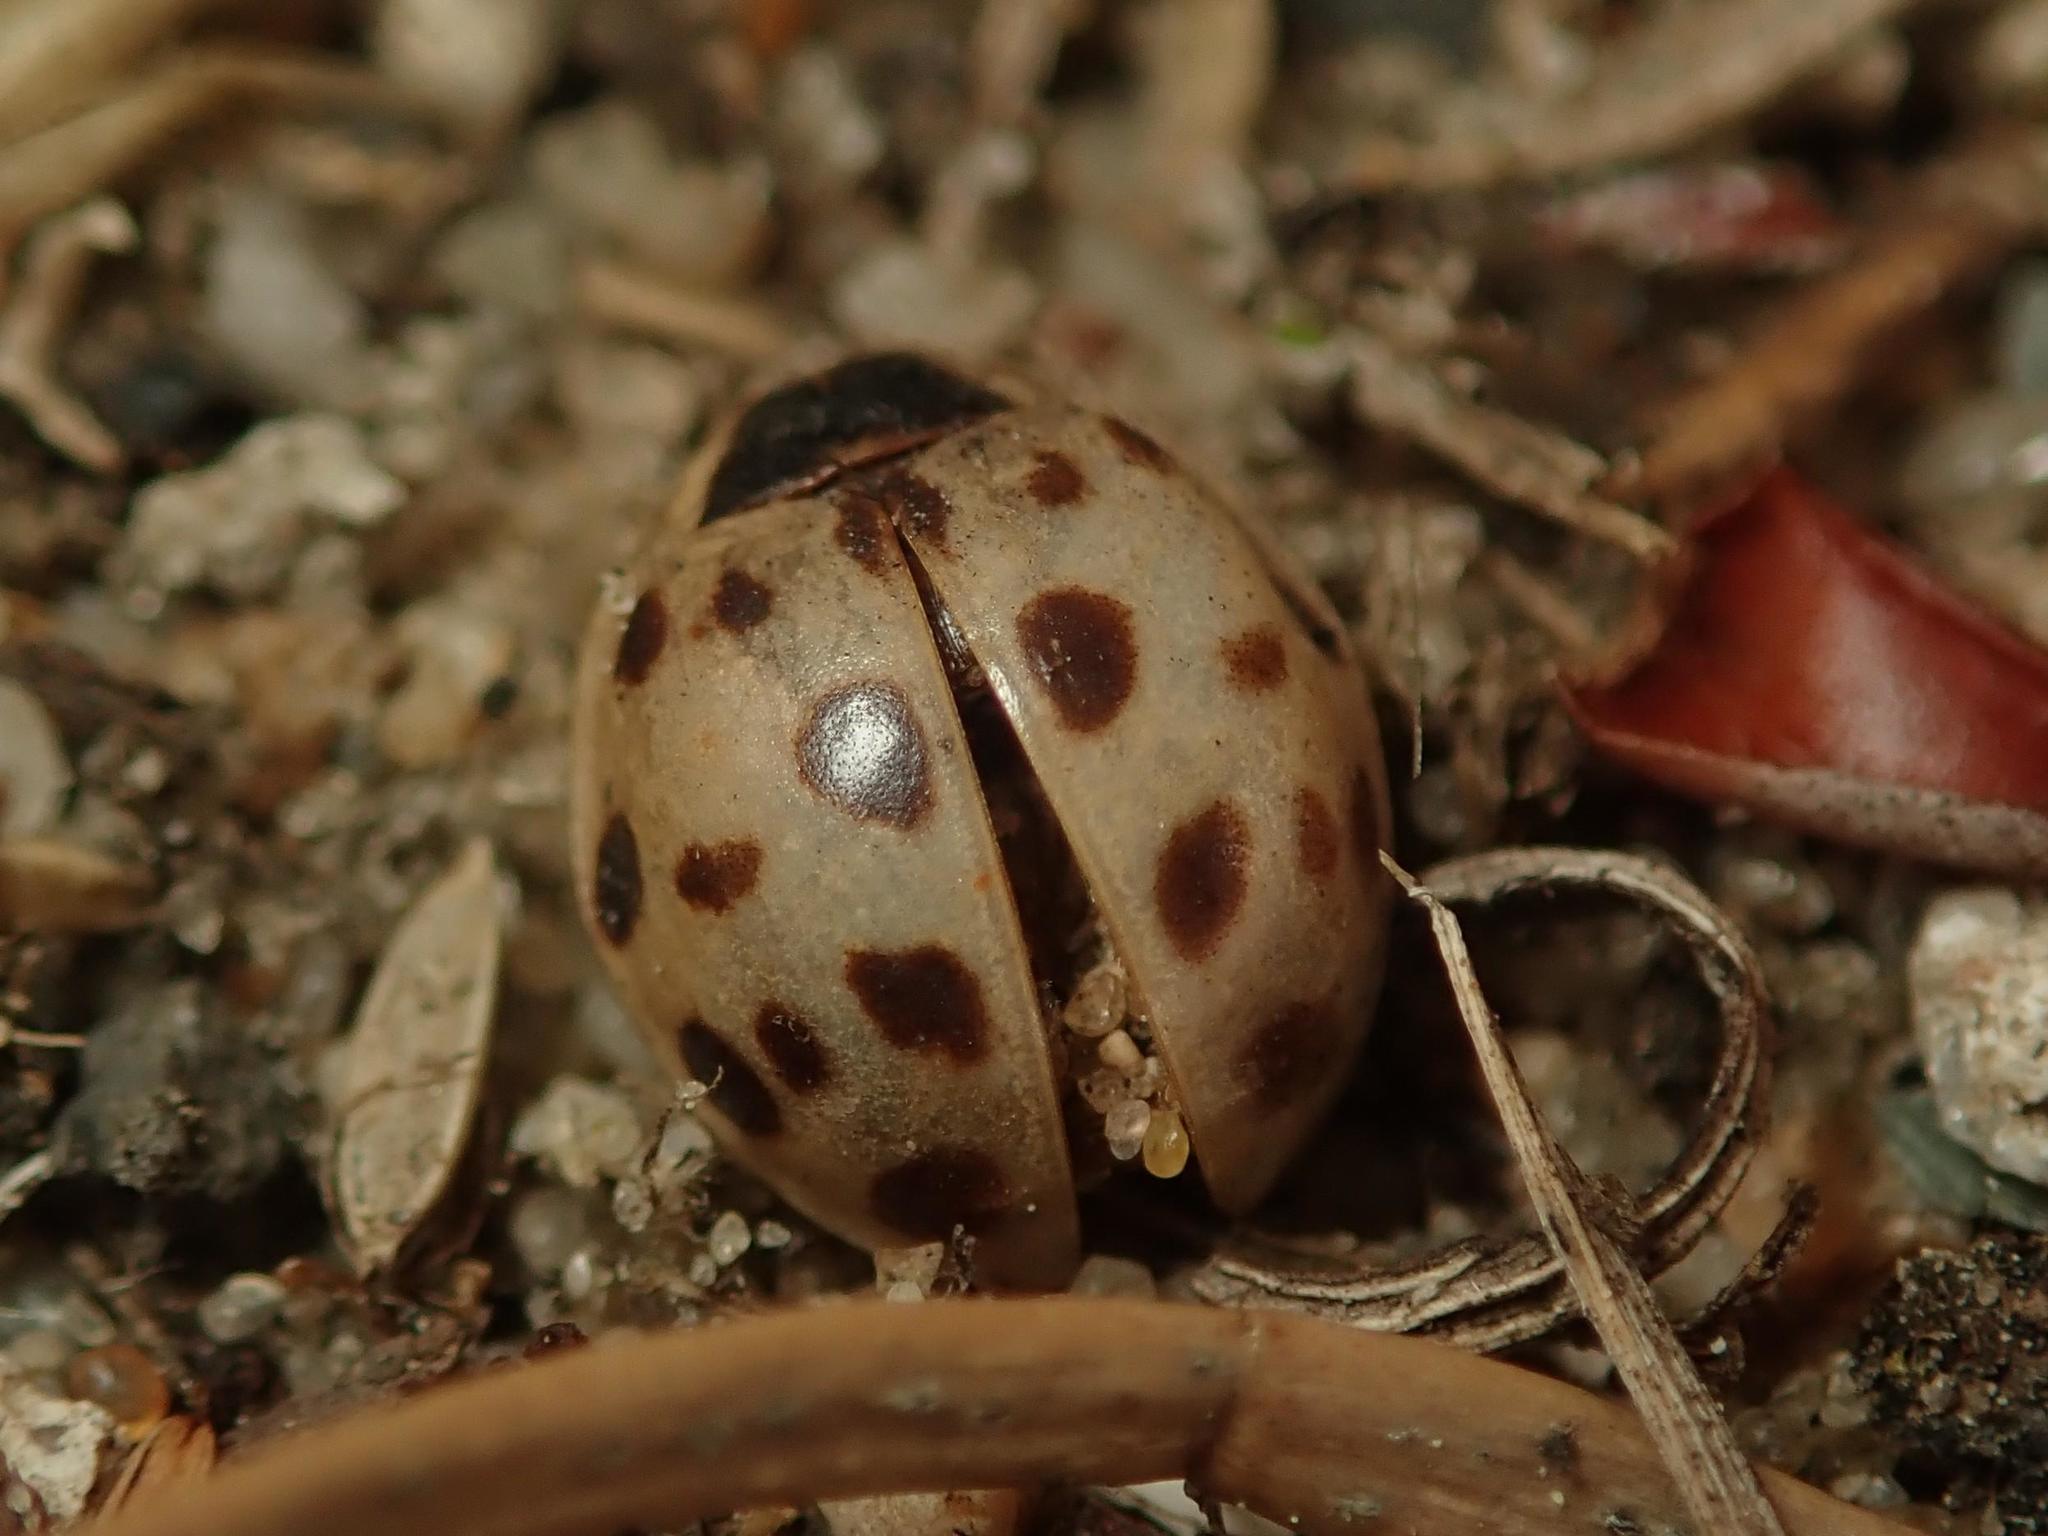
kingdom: Animalia
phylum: Arthropoda
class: Insecta
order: Coleoptera
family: Coccinellidae
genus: Harmonia
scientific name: Harmonia axyridis
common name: Harlequin ladybird
